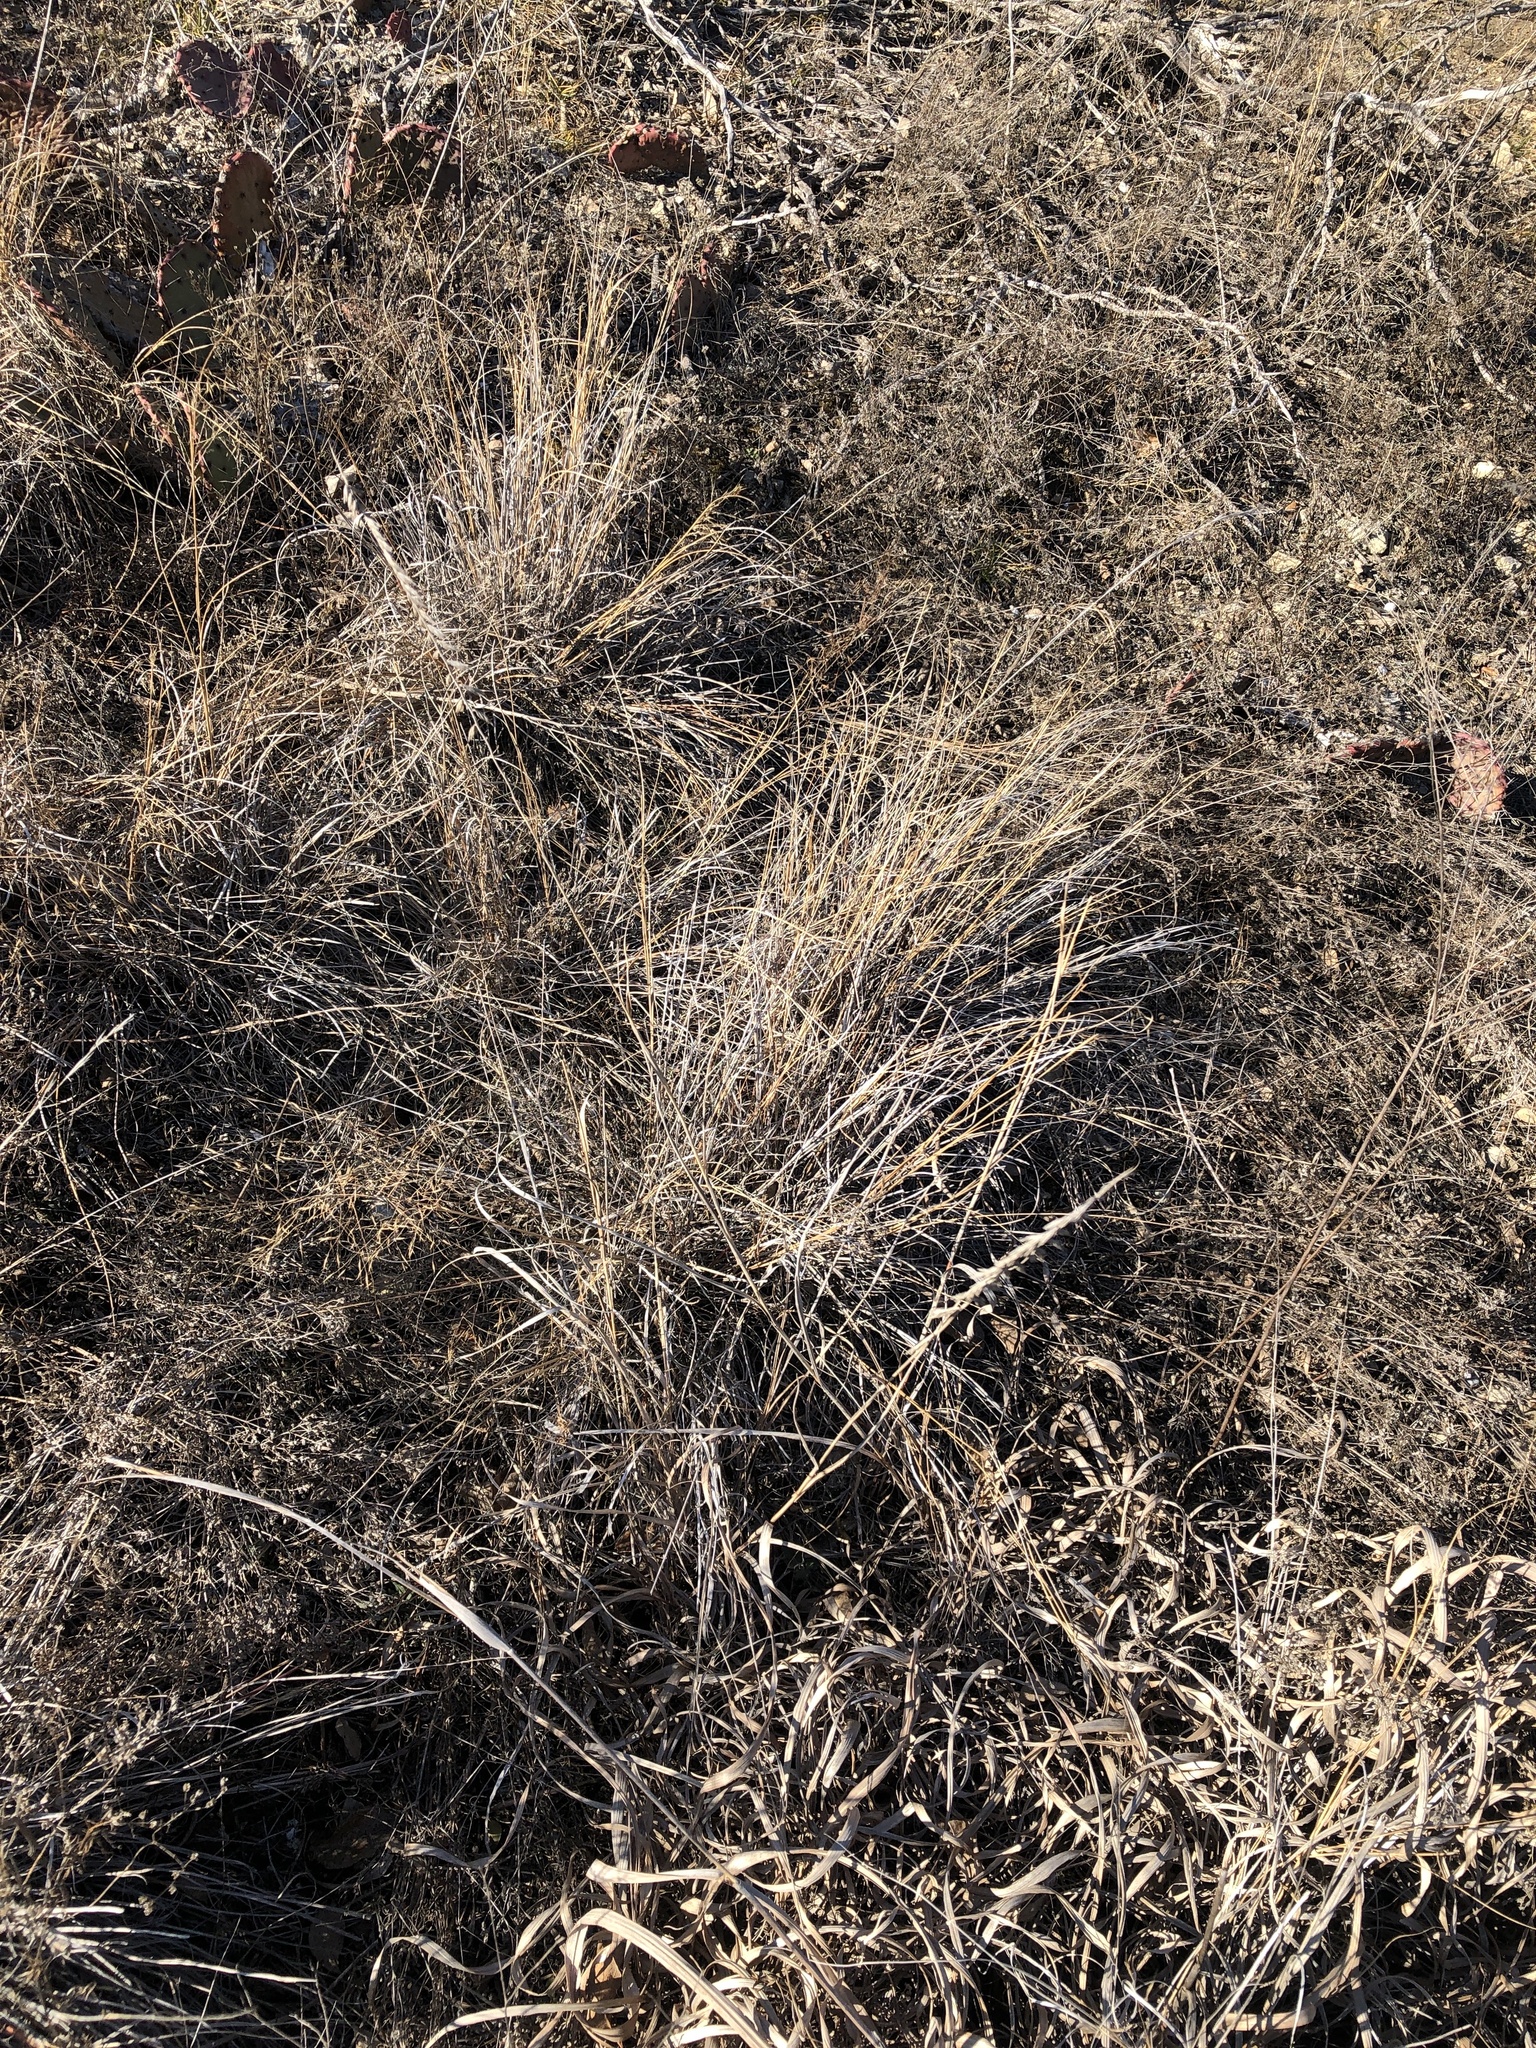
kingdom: Plantae
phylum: Tracheophyta
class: Liliopsida
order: Poales
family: Poaceae
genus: Bouteloua
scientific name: Bouteloua curtipendula
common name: Side-oats grama
